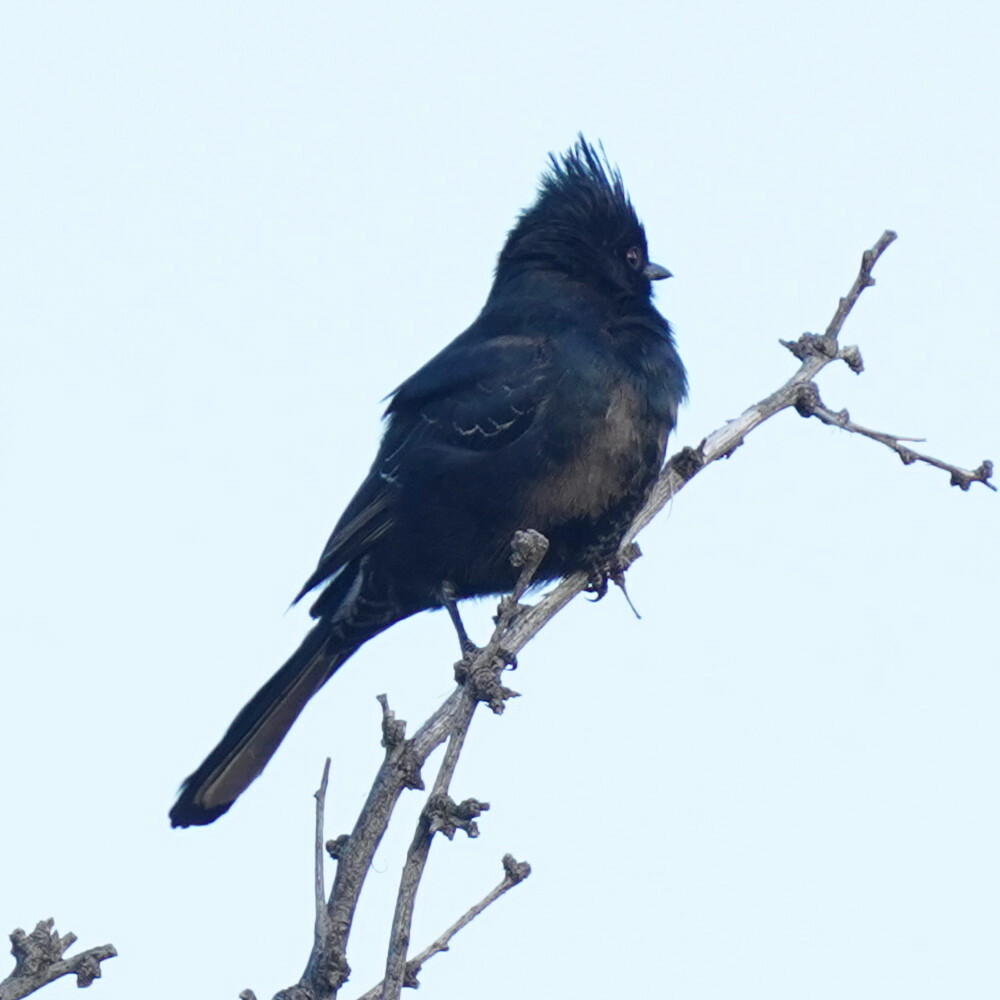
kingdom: Animalia
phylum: Chordata
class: Aves
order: Passeriformes
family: Ptilogonatidae
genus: Phainopepla
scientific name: Phainopepla nitens
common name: Phainopepla
